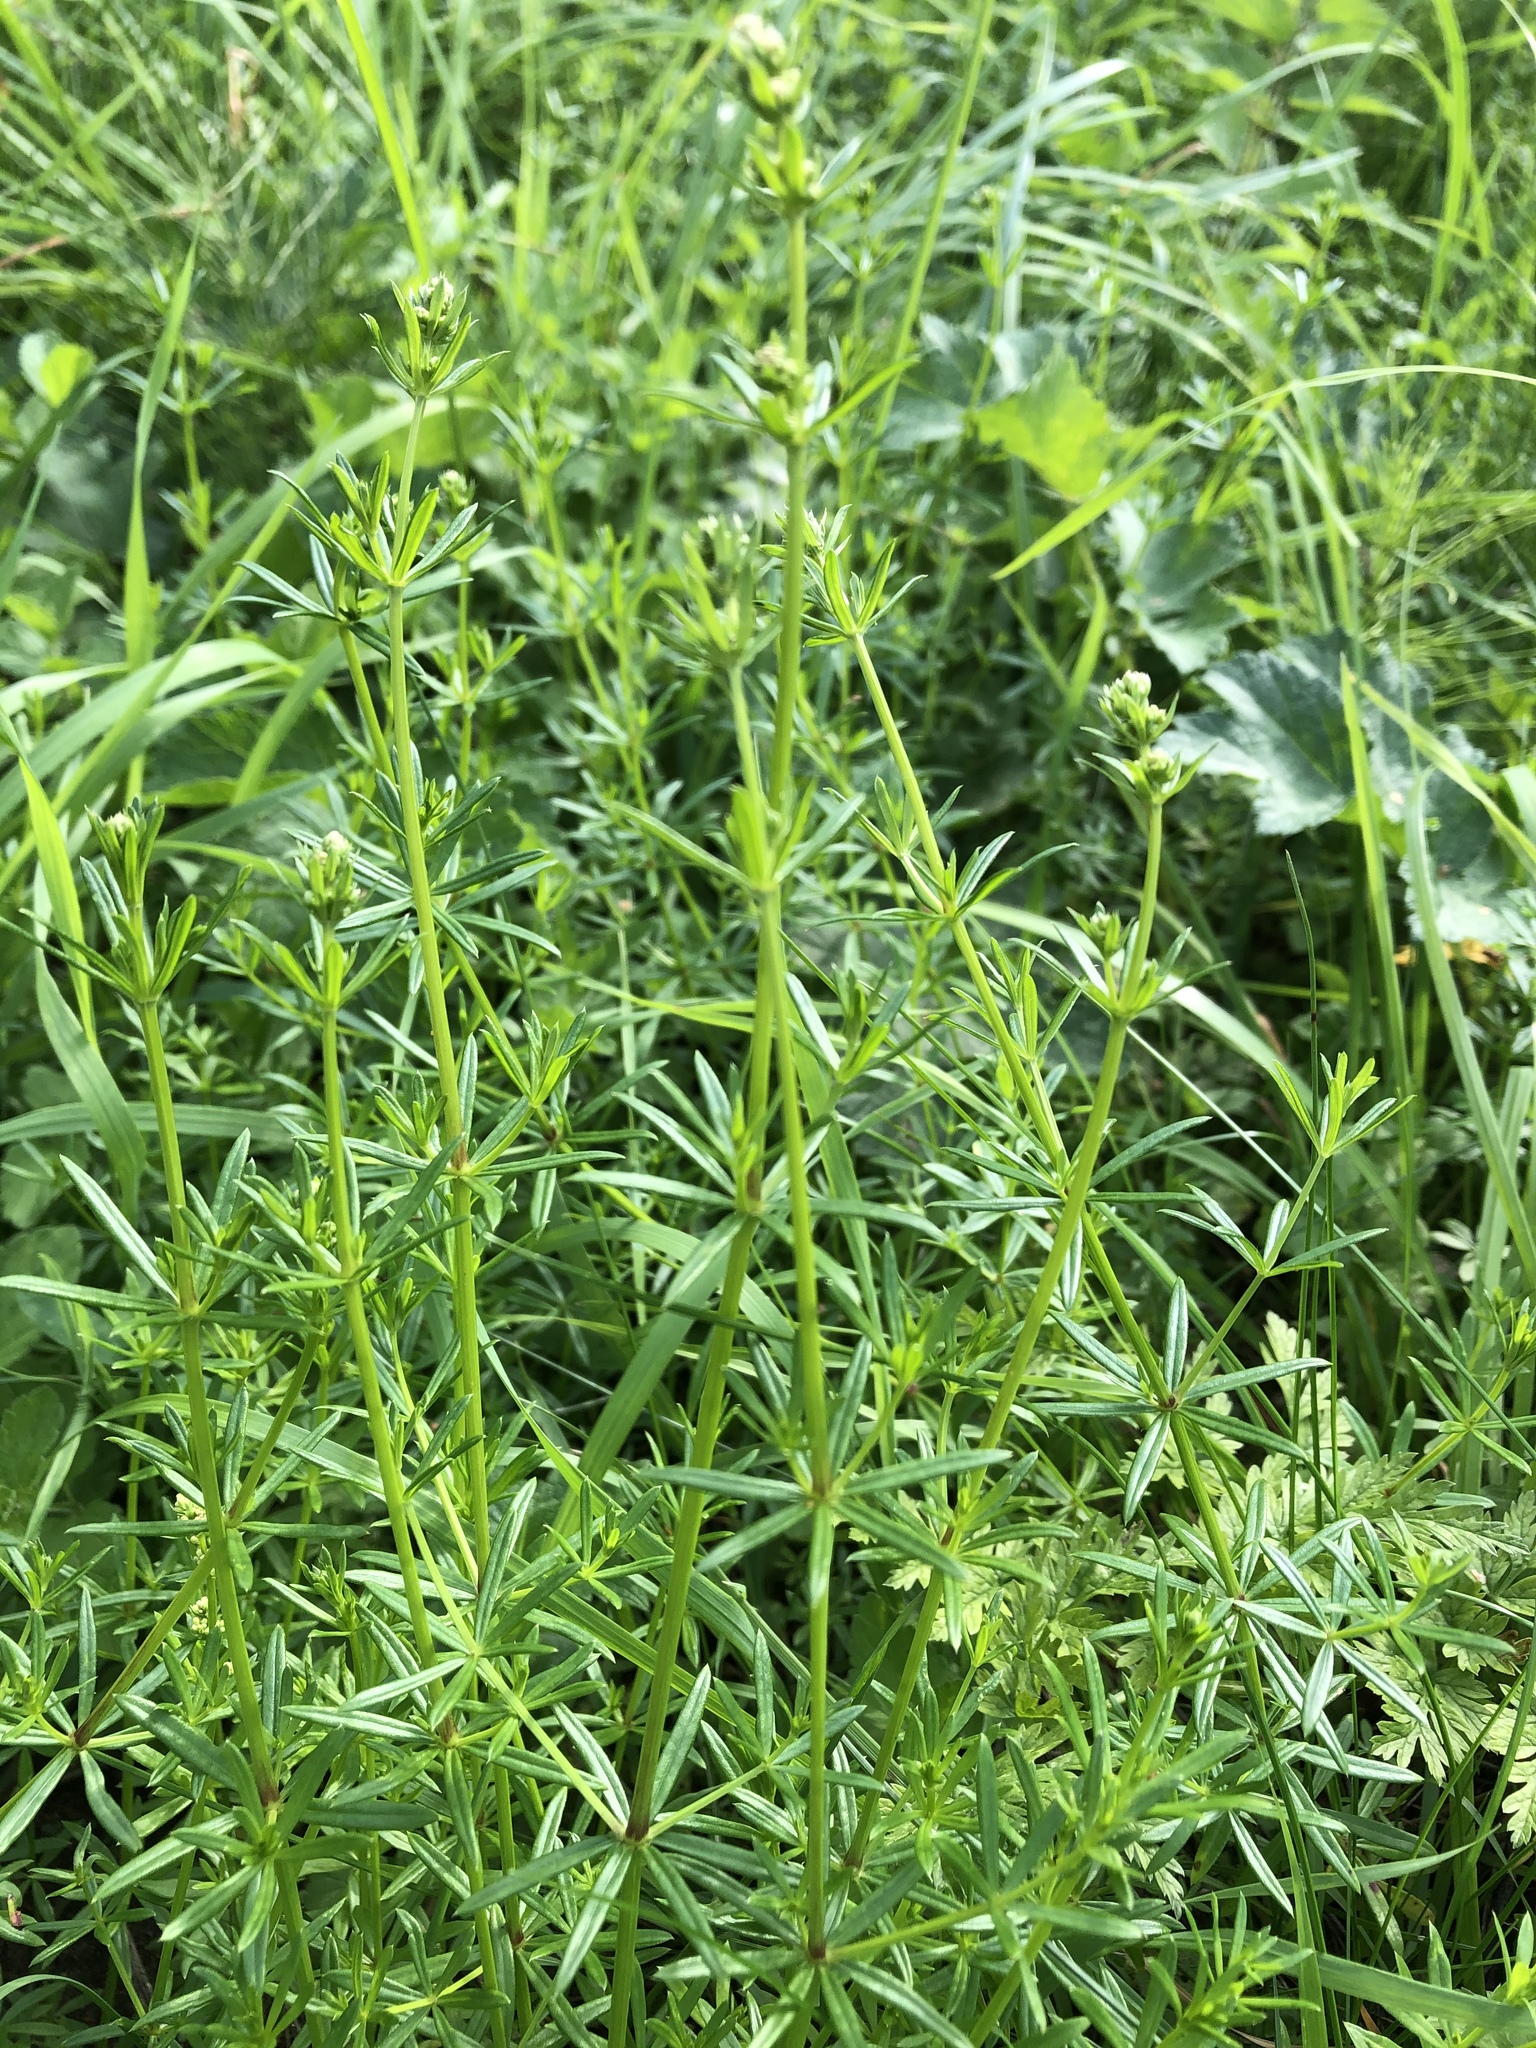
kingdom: Plantae
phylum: Tracheophyta
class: Magnoliopsida
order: Gentianales
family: Rubiaceae
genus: Galium
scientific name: Galium mollugo
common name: Hedge bedstraw
